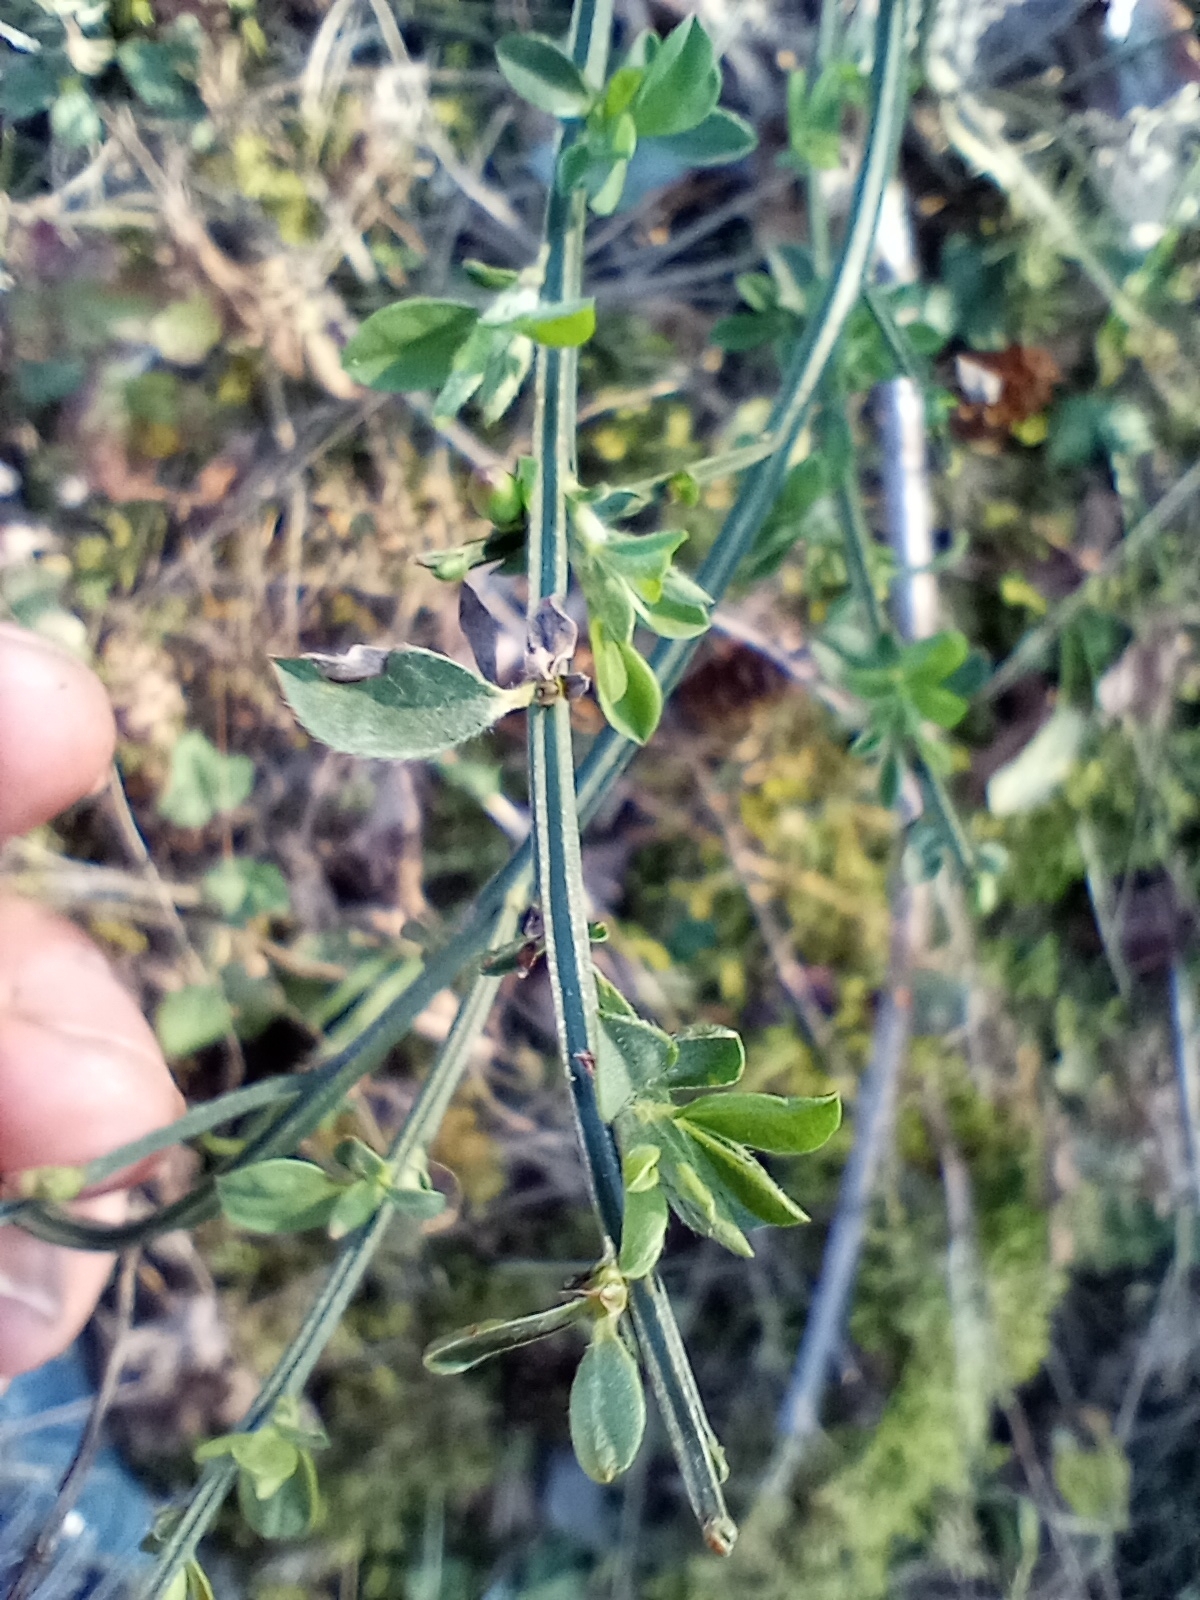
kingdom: Plantae
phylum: Tracheophyta
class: Magnoliopsida
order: Fabales
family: Fabaceae
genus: Cytisus
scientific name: Cytisus scoparius
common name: Scotch broom
